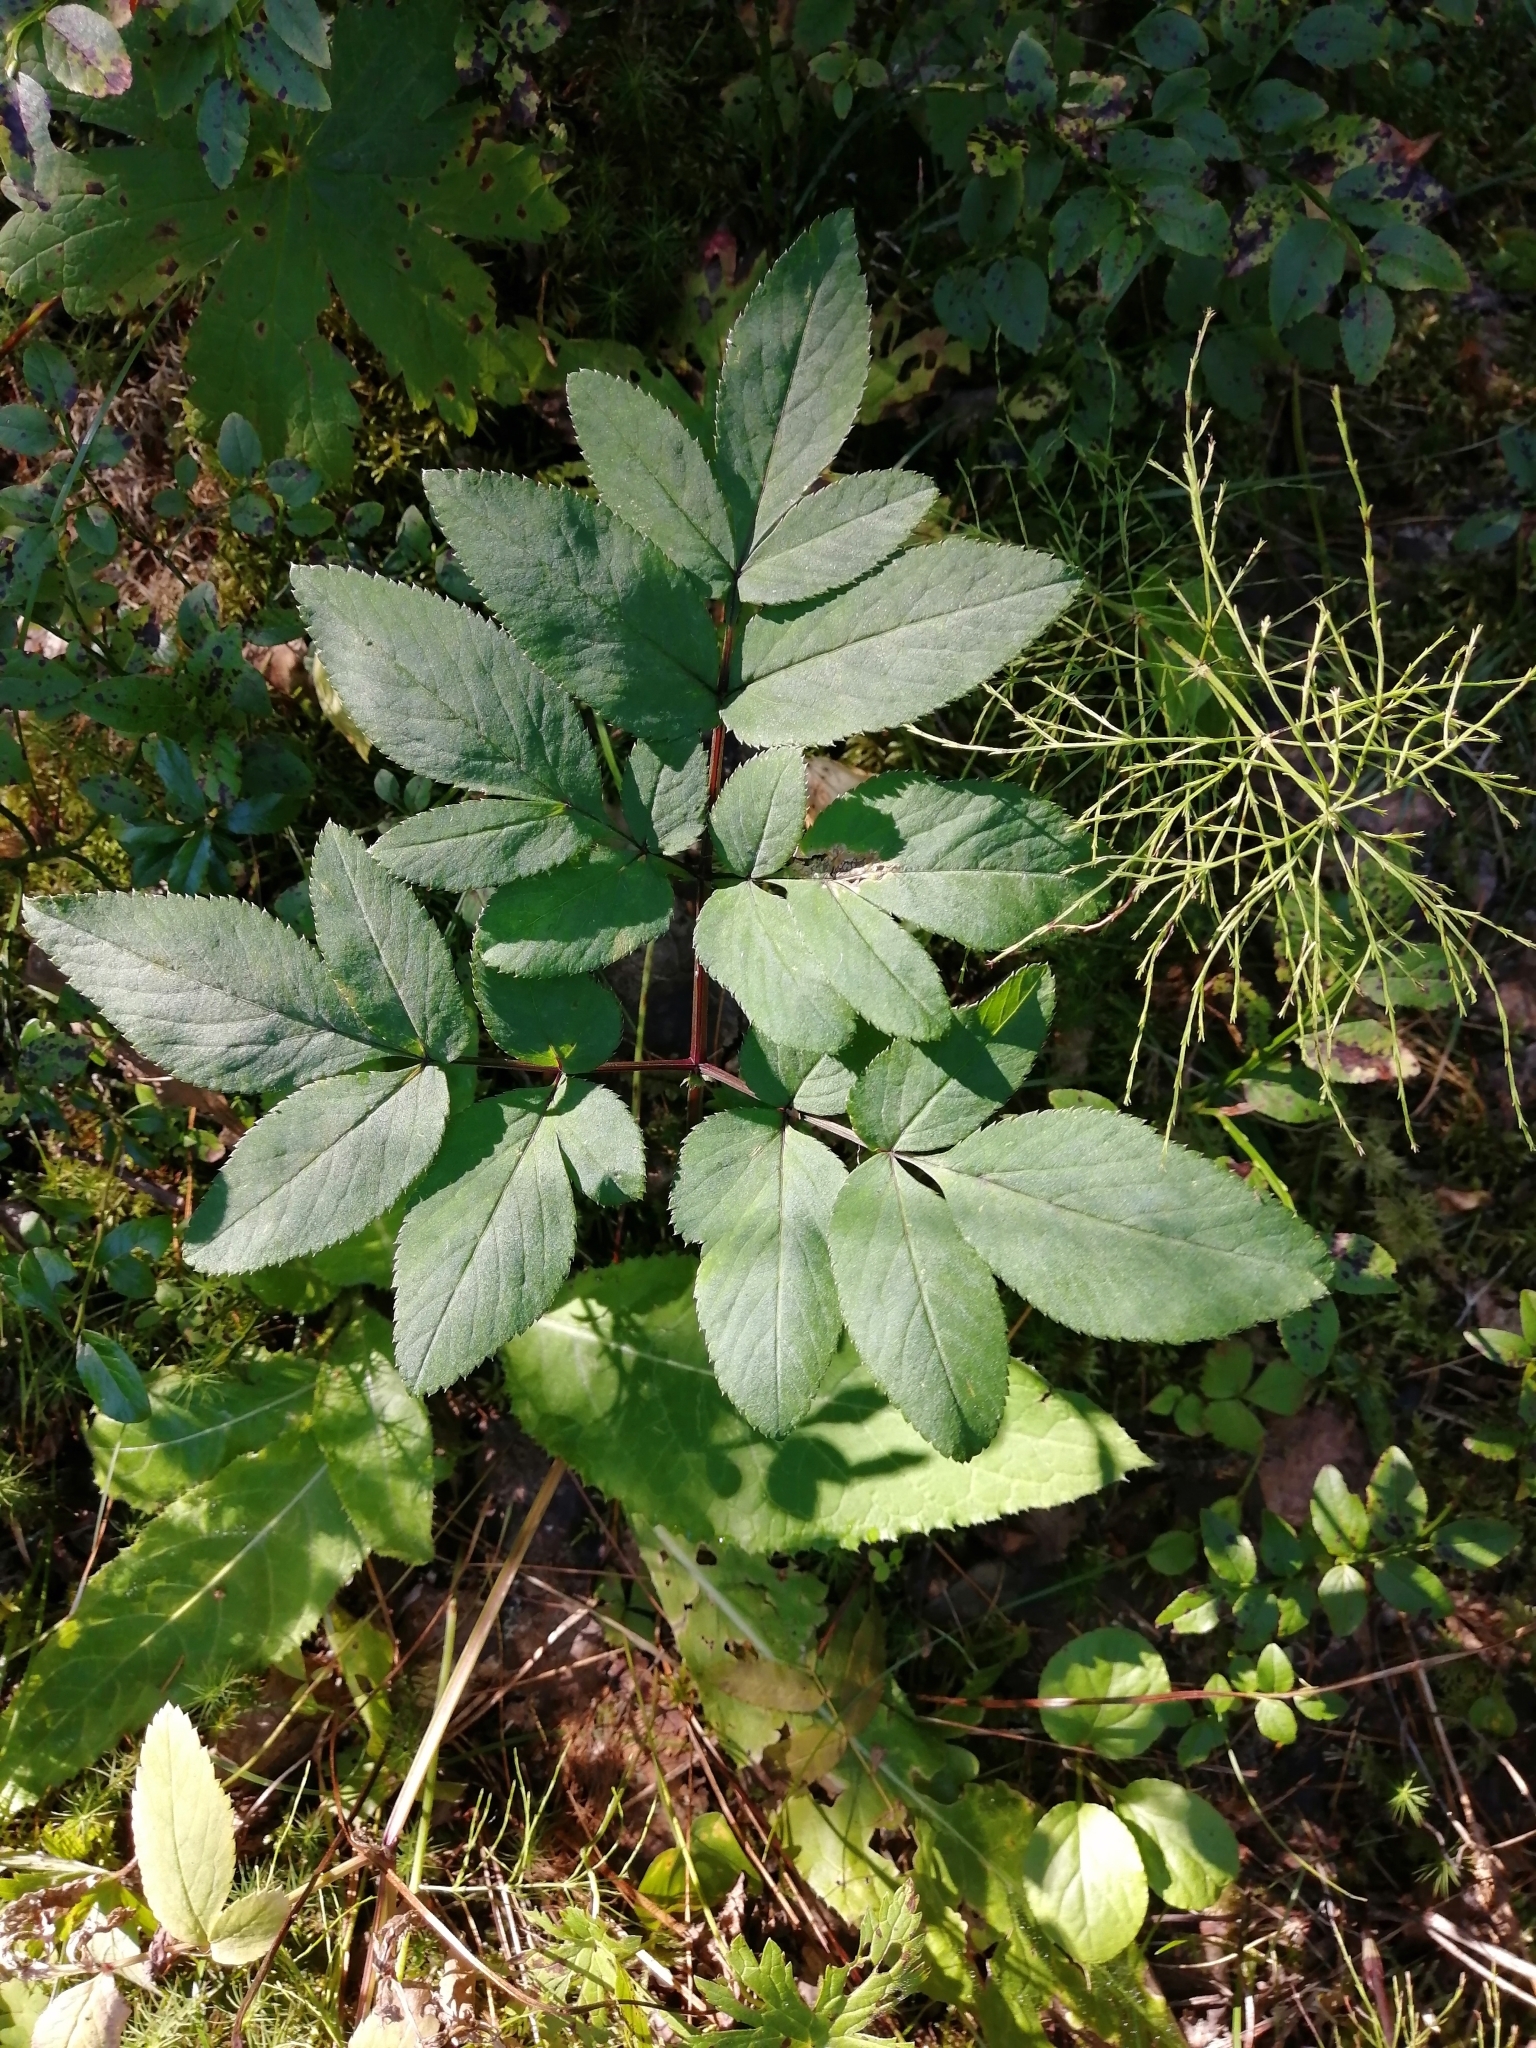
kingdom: Plantae
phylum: Tracheophyta
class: Magnoliopsida
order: Apiales
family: Apiaceae
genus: Angelica
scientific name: Angelica sylvestris
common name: Wild angelica
